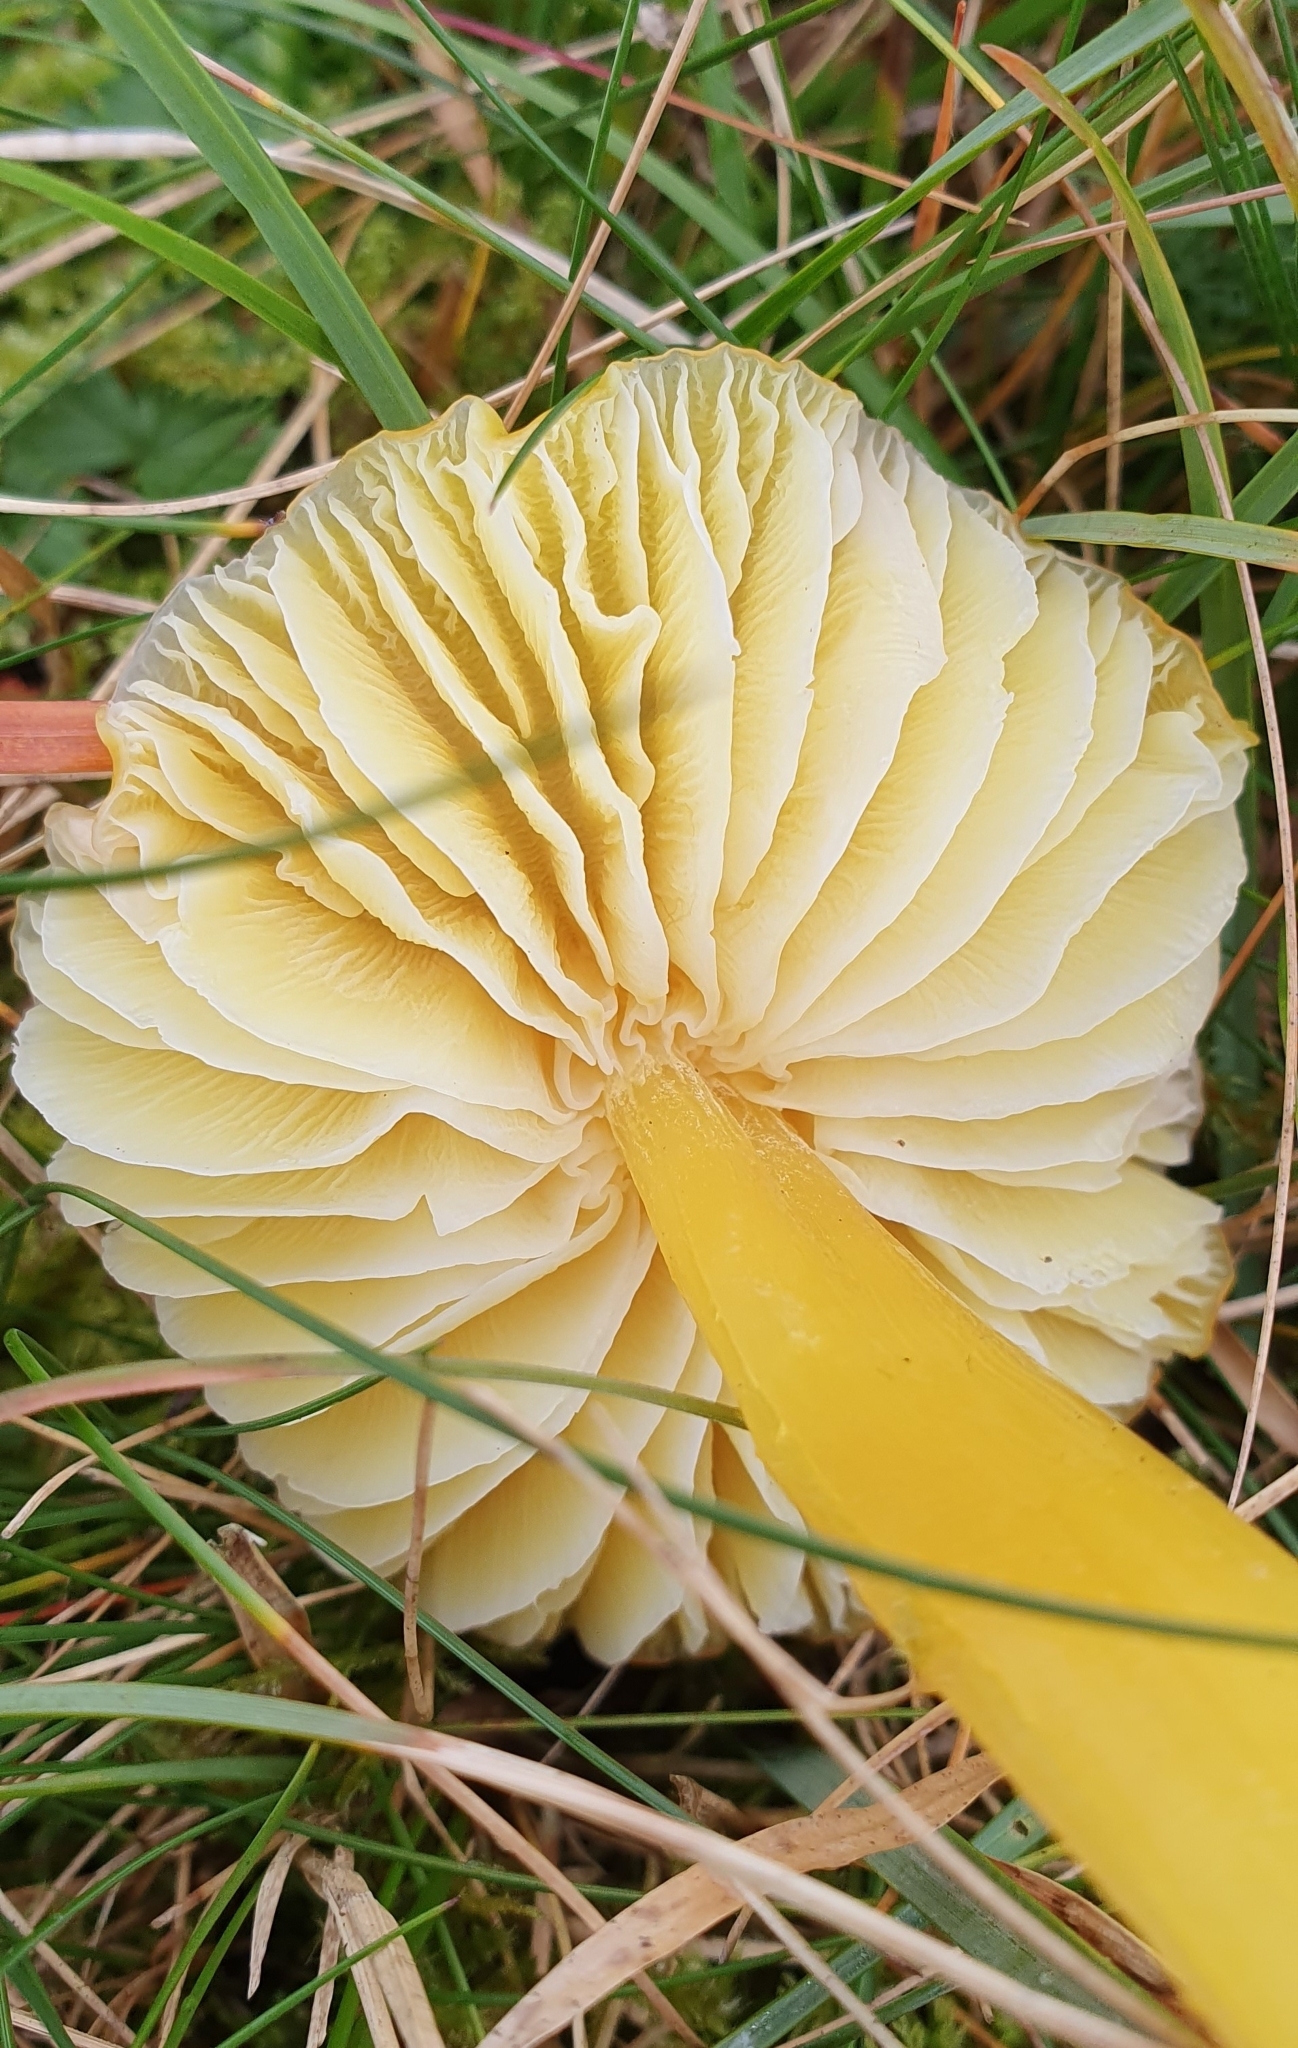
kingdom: Fungi
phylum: Basidiomycota
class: Agaricomycetes
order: Agaricales
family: Hygrophoraceae
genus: Hygrocybe
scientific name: Hygrocybe chlorophana
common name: Golden waxcap
